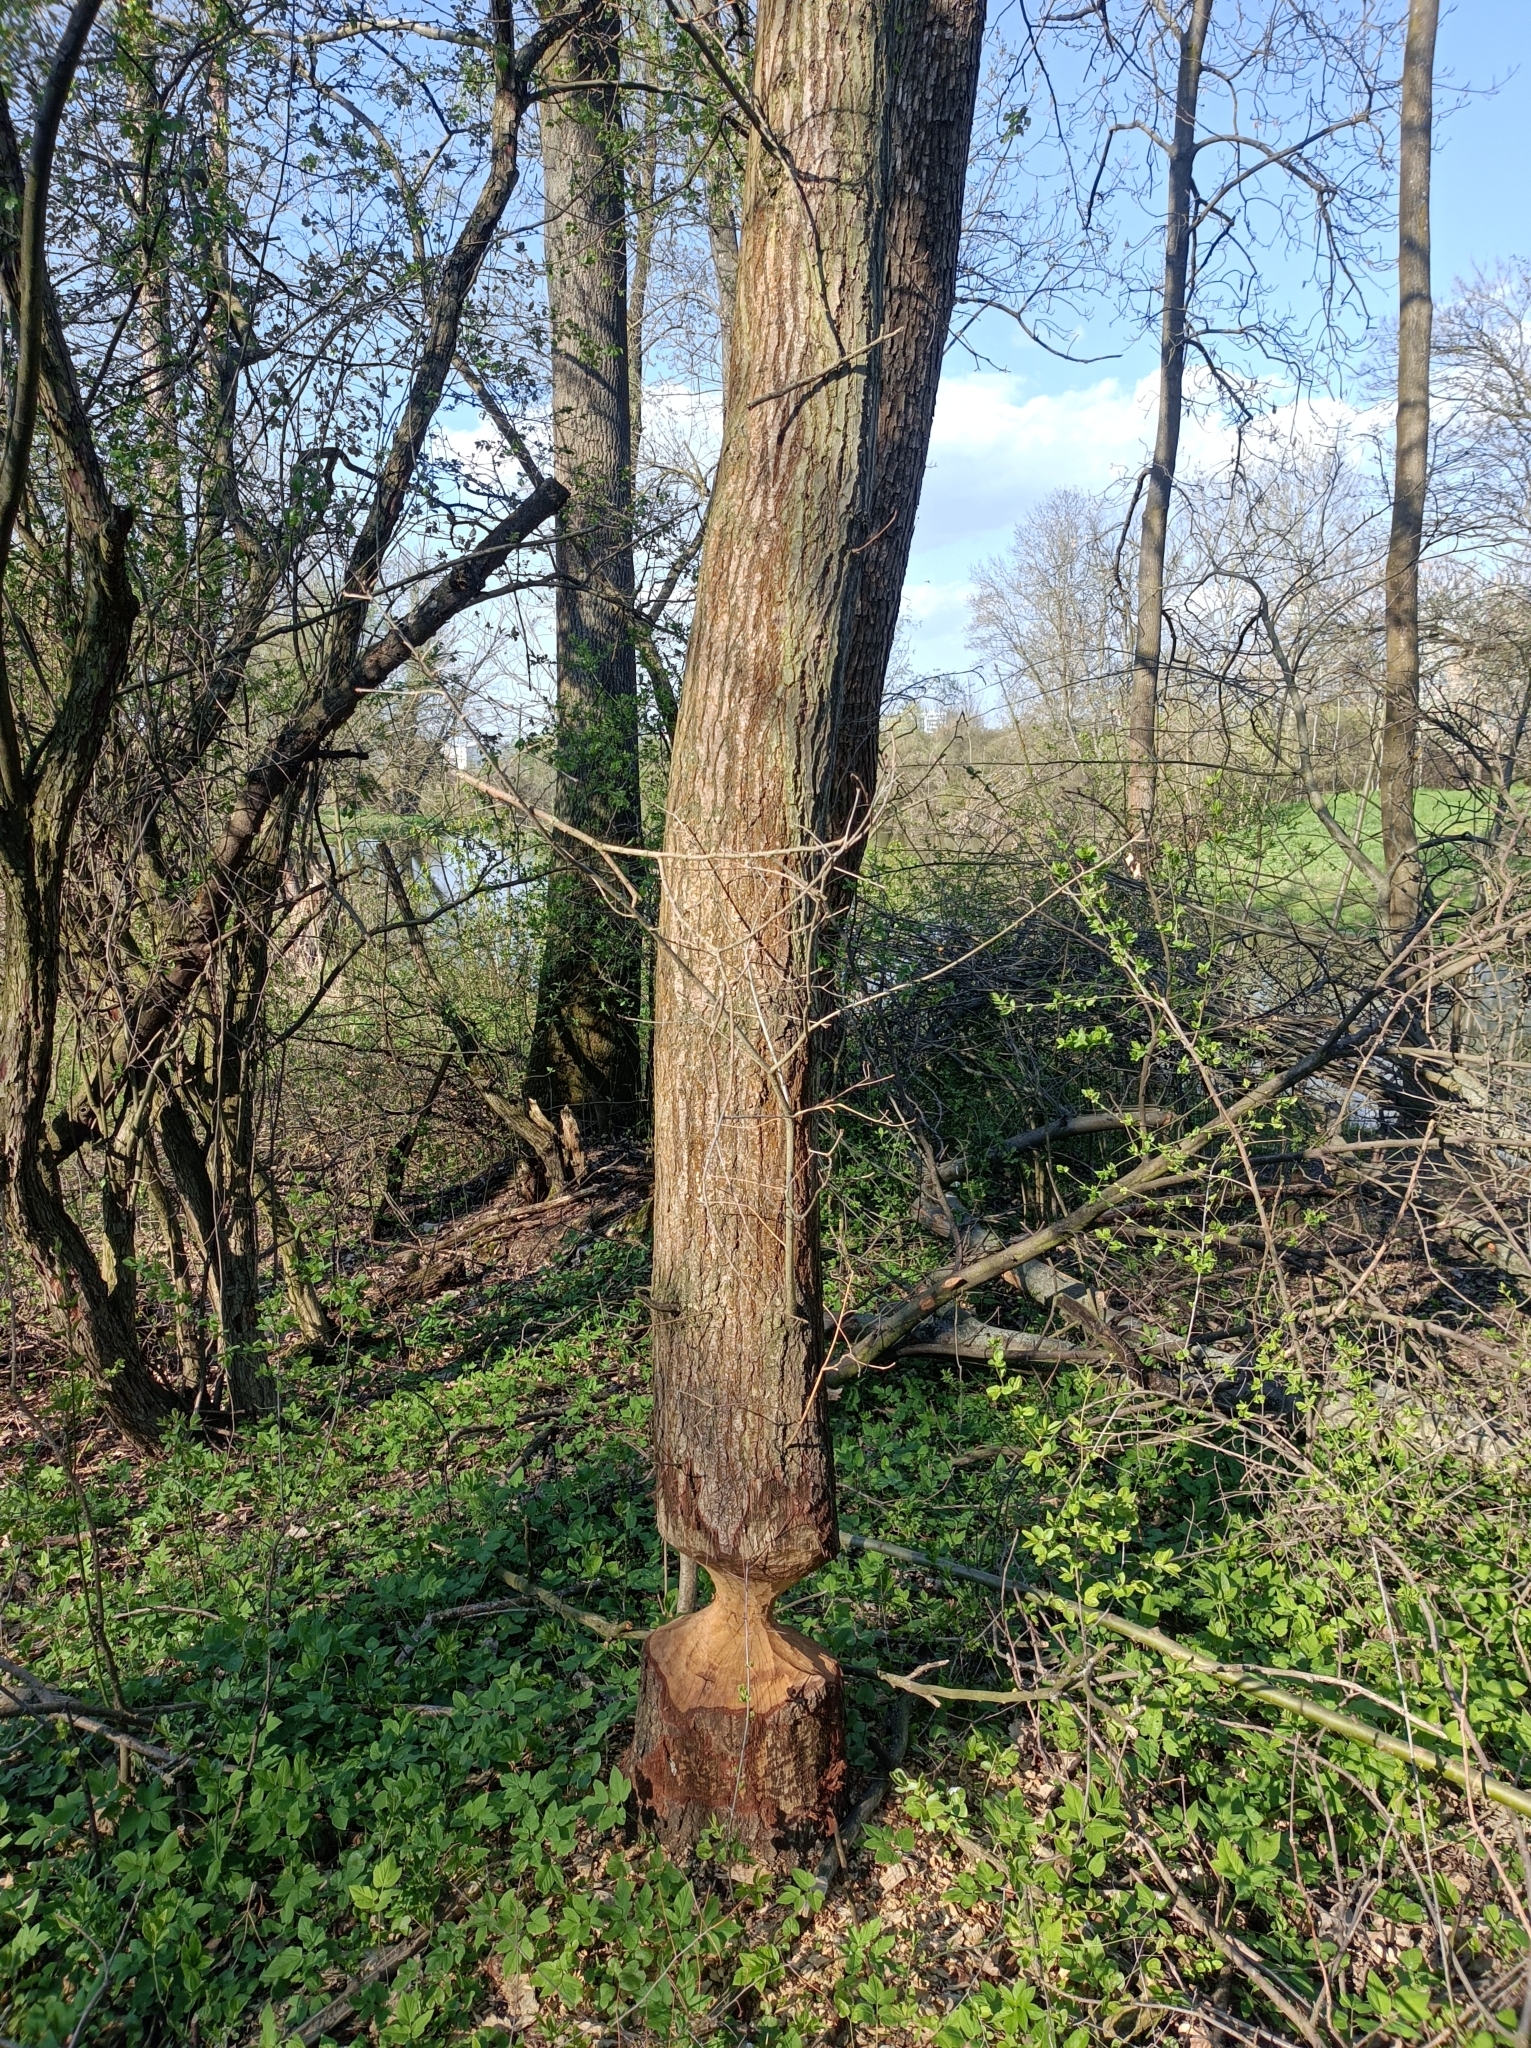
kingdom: Animalia
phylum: Chordata
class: Mammalia
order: Rodentia
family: Castoridae
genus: Castor
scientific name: Castor fiber
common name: Eurasian beaver
